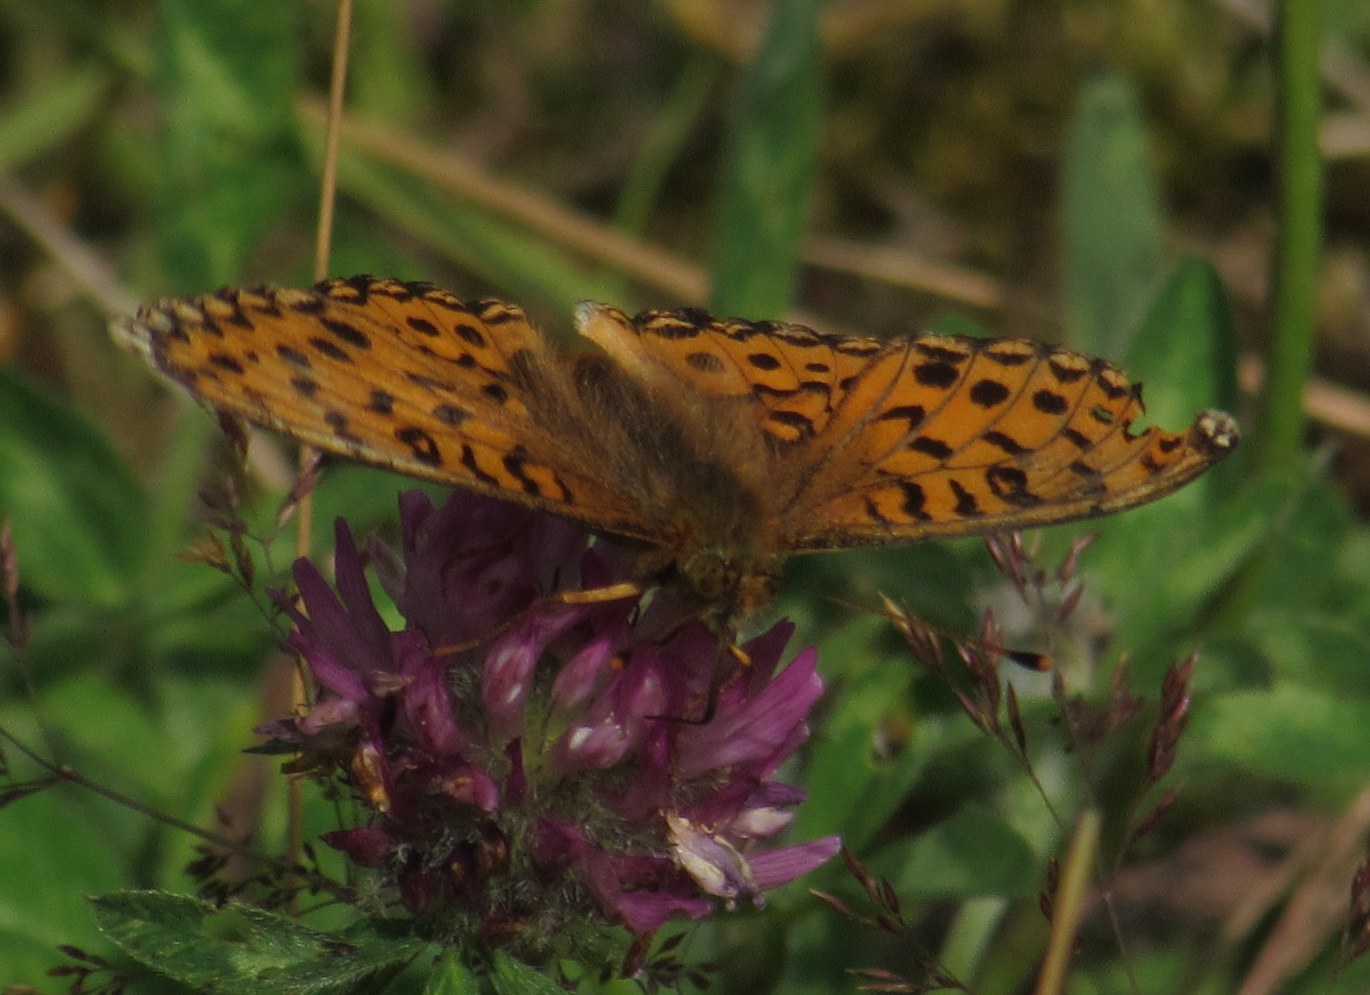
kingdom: Animalia
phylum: Arthropoda
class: Insecta
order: Lepidoptera
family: Nymphalidae
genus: Speyeria
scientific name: Speyeria aglaja
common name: Dark green fritillary
